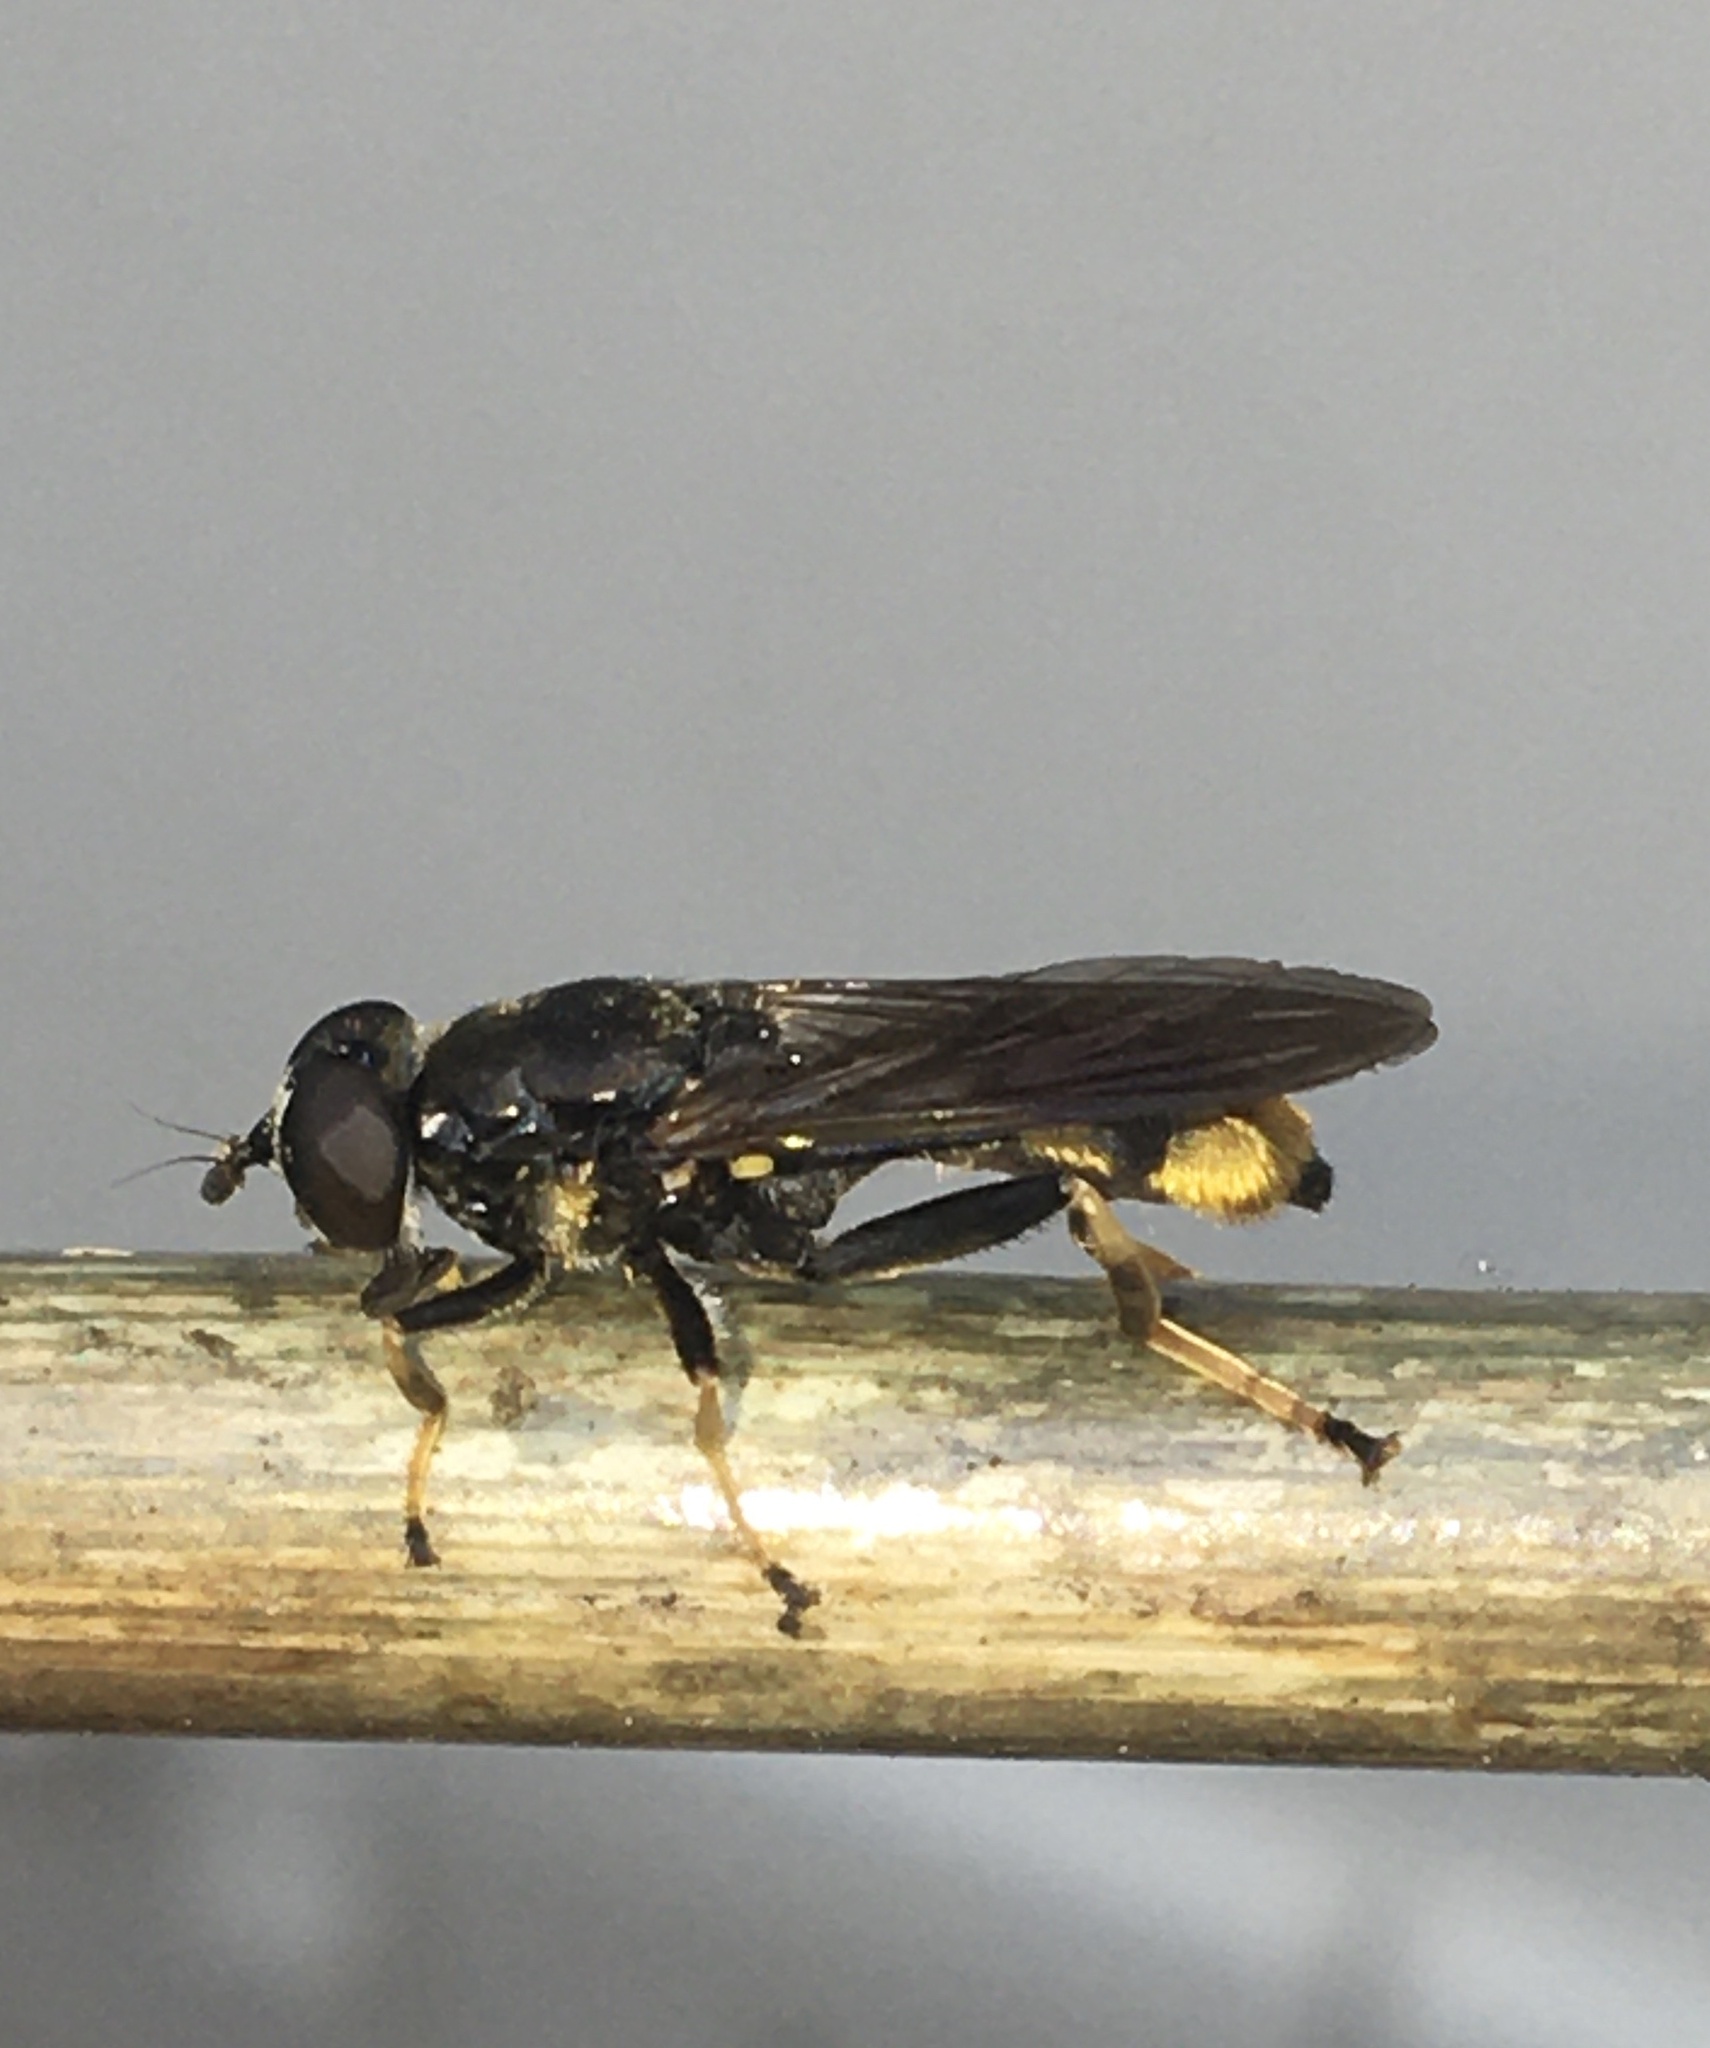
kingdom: Animalia
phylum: Arthropoda
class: Insecta
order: Diptera
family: Syrphidae
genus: Xylota
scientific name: Xylota sylvarum
